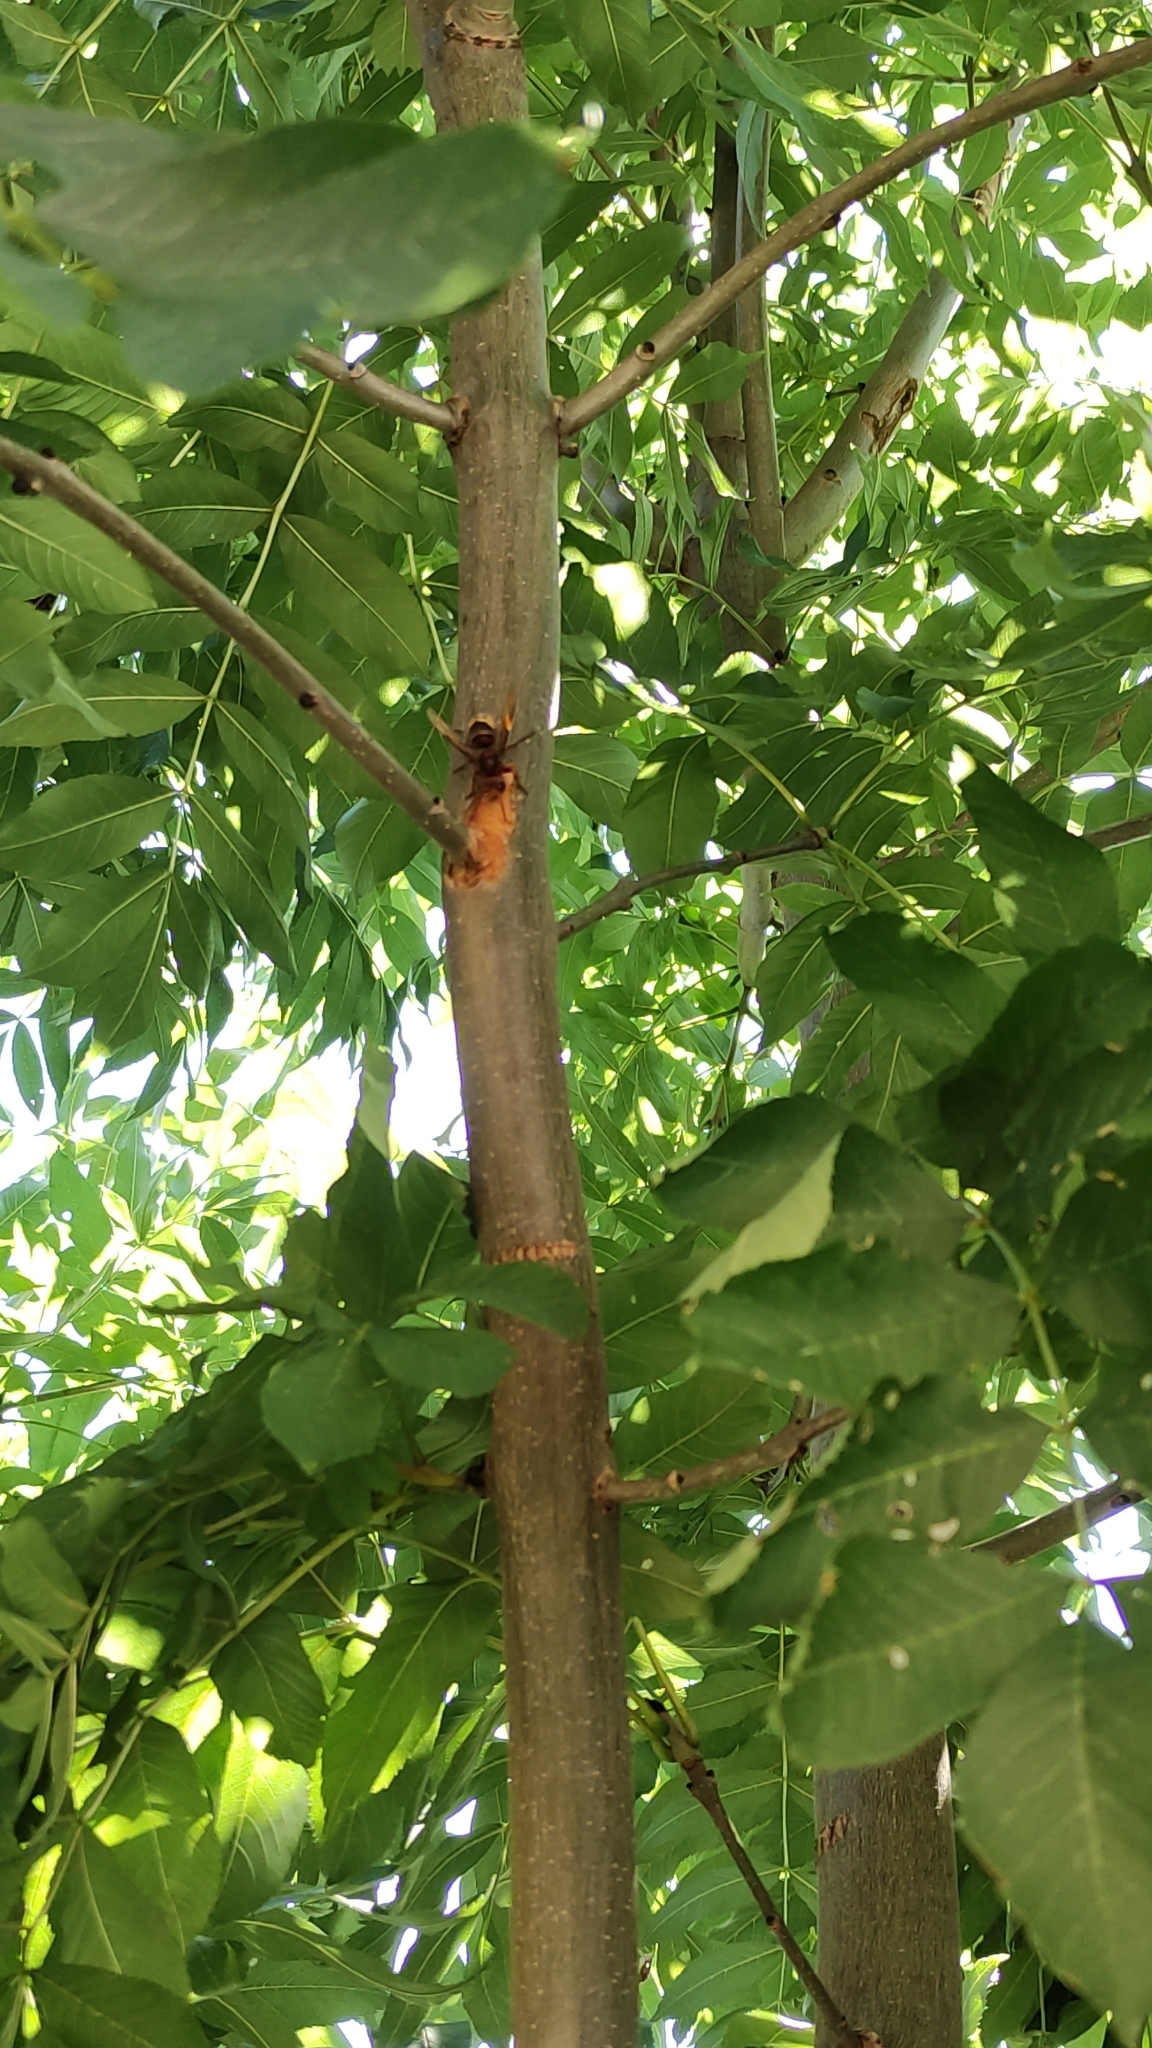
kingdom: Animalia
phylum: Arthropoda
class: Insecta
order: Hymenoptera
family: Vespidae
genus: Vespa
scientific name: Vespa crabro
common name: Hornet
